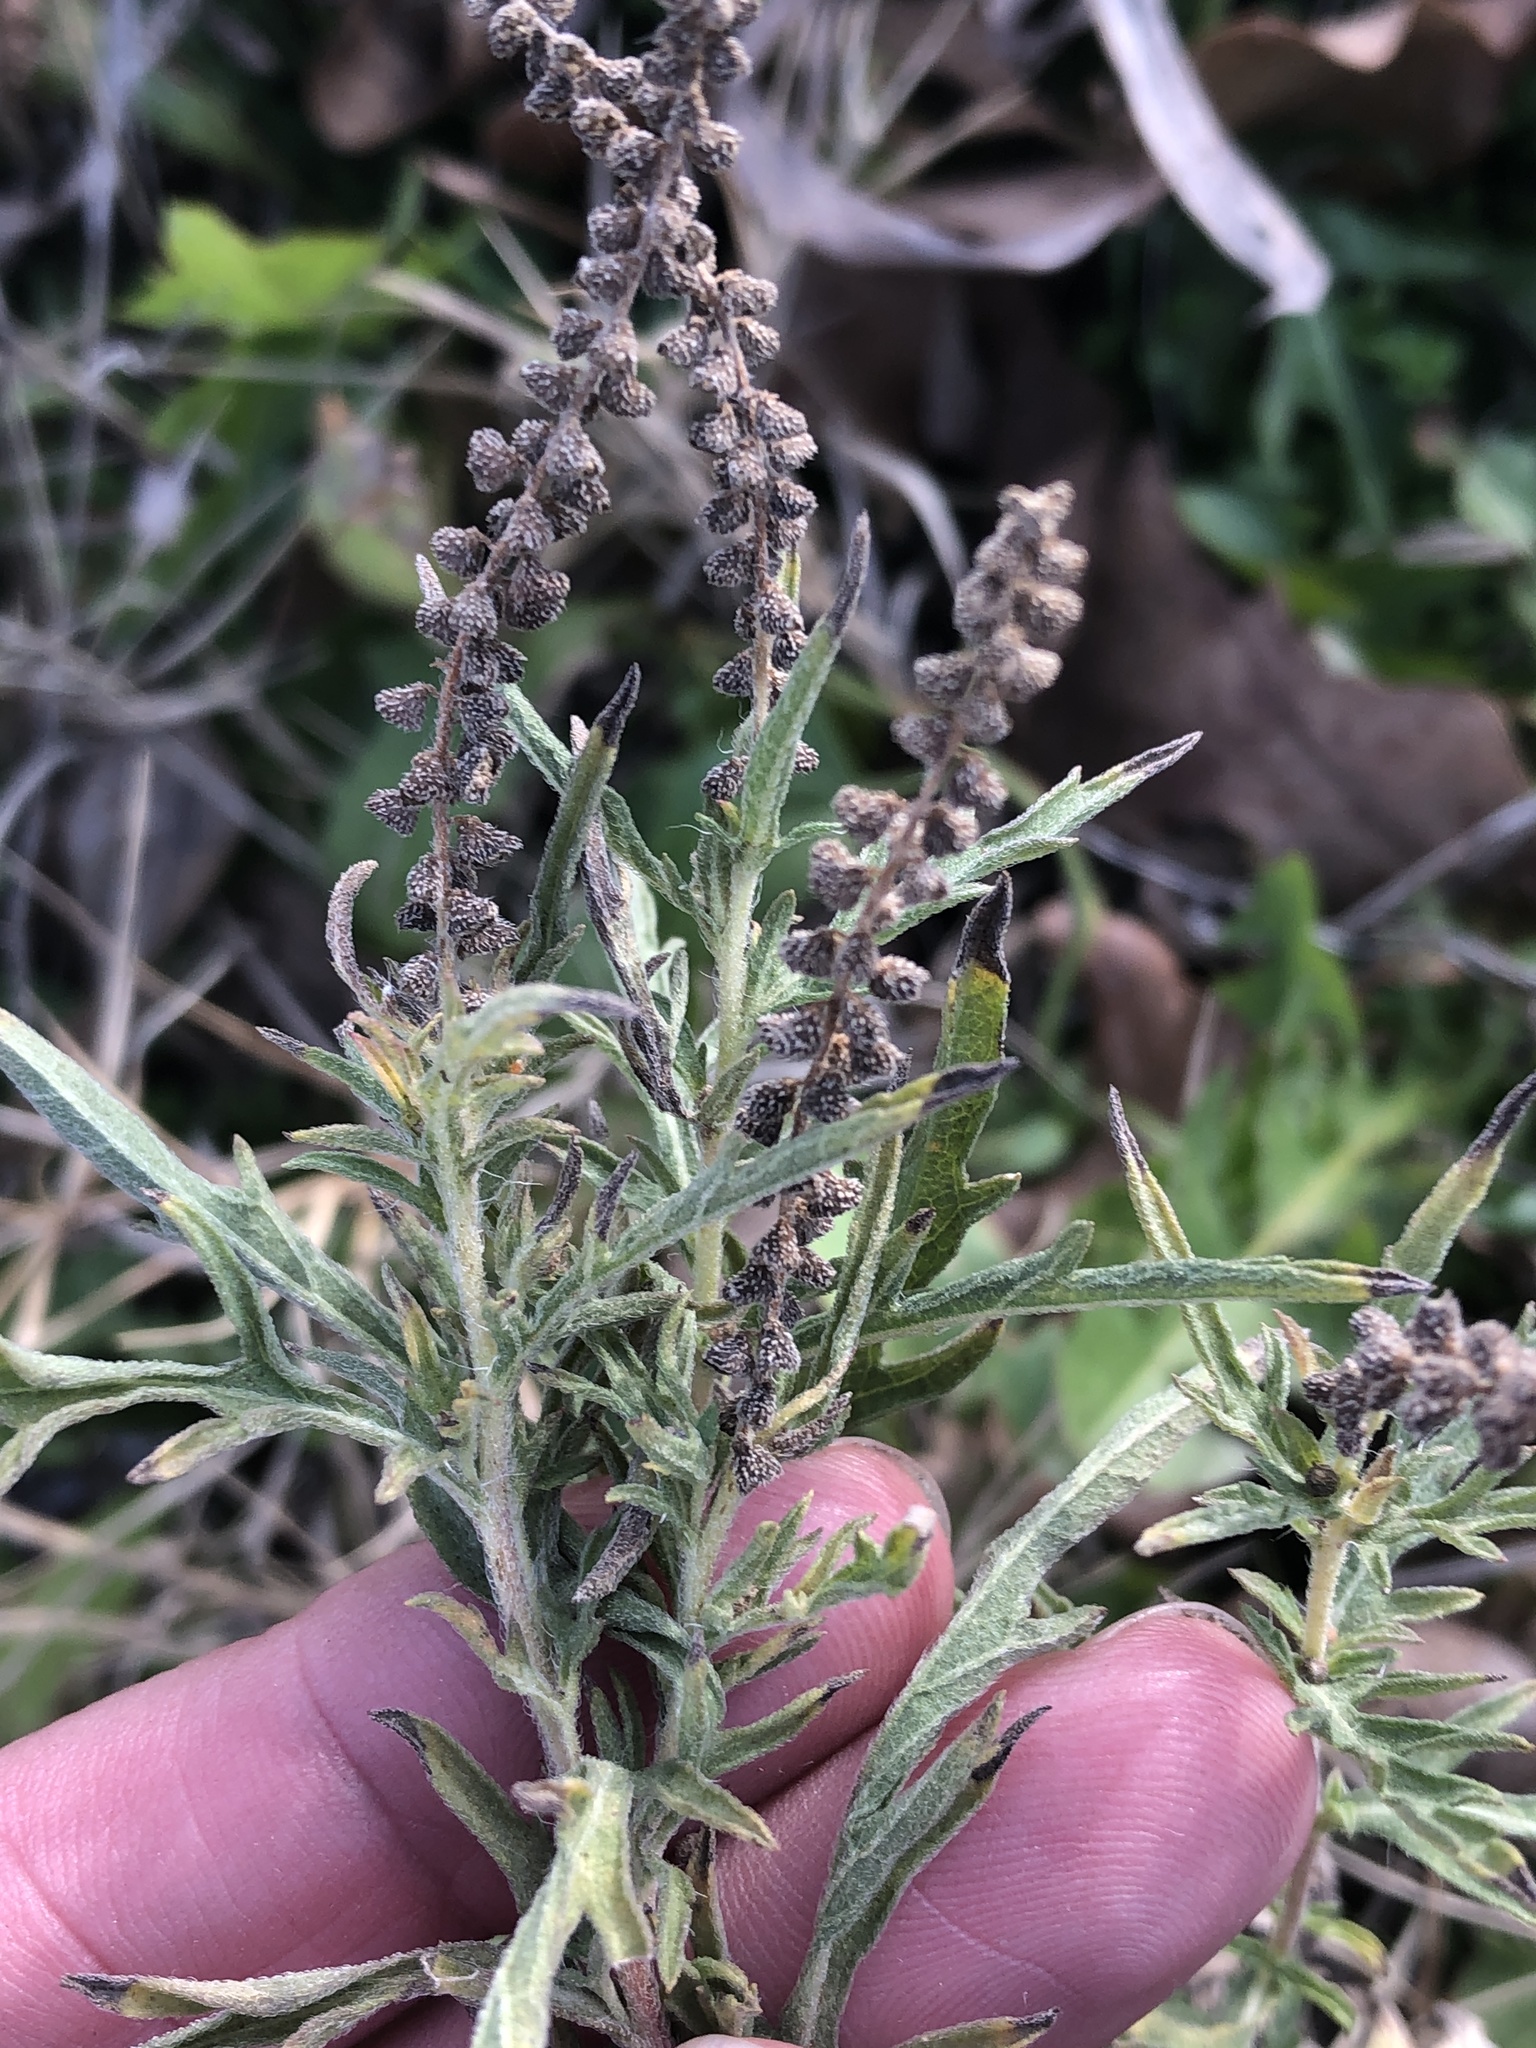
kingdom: Plantae
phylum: Tracheophyta
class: Magnoliopsida
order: Asterales
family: Asteraceae
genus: Ambrosia
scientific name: Ambrosia psilostachya
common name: Perennial ragweed
